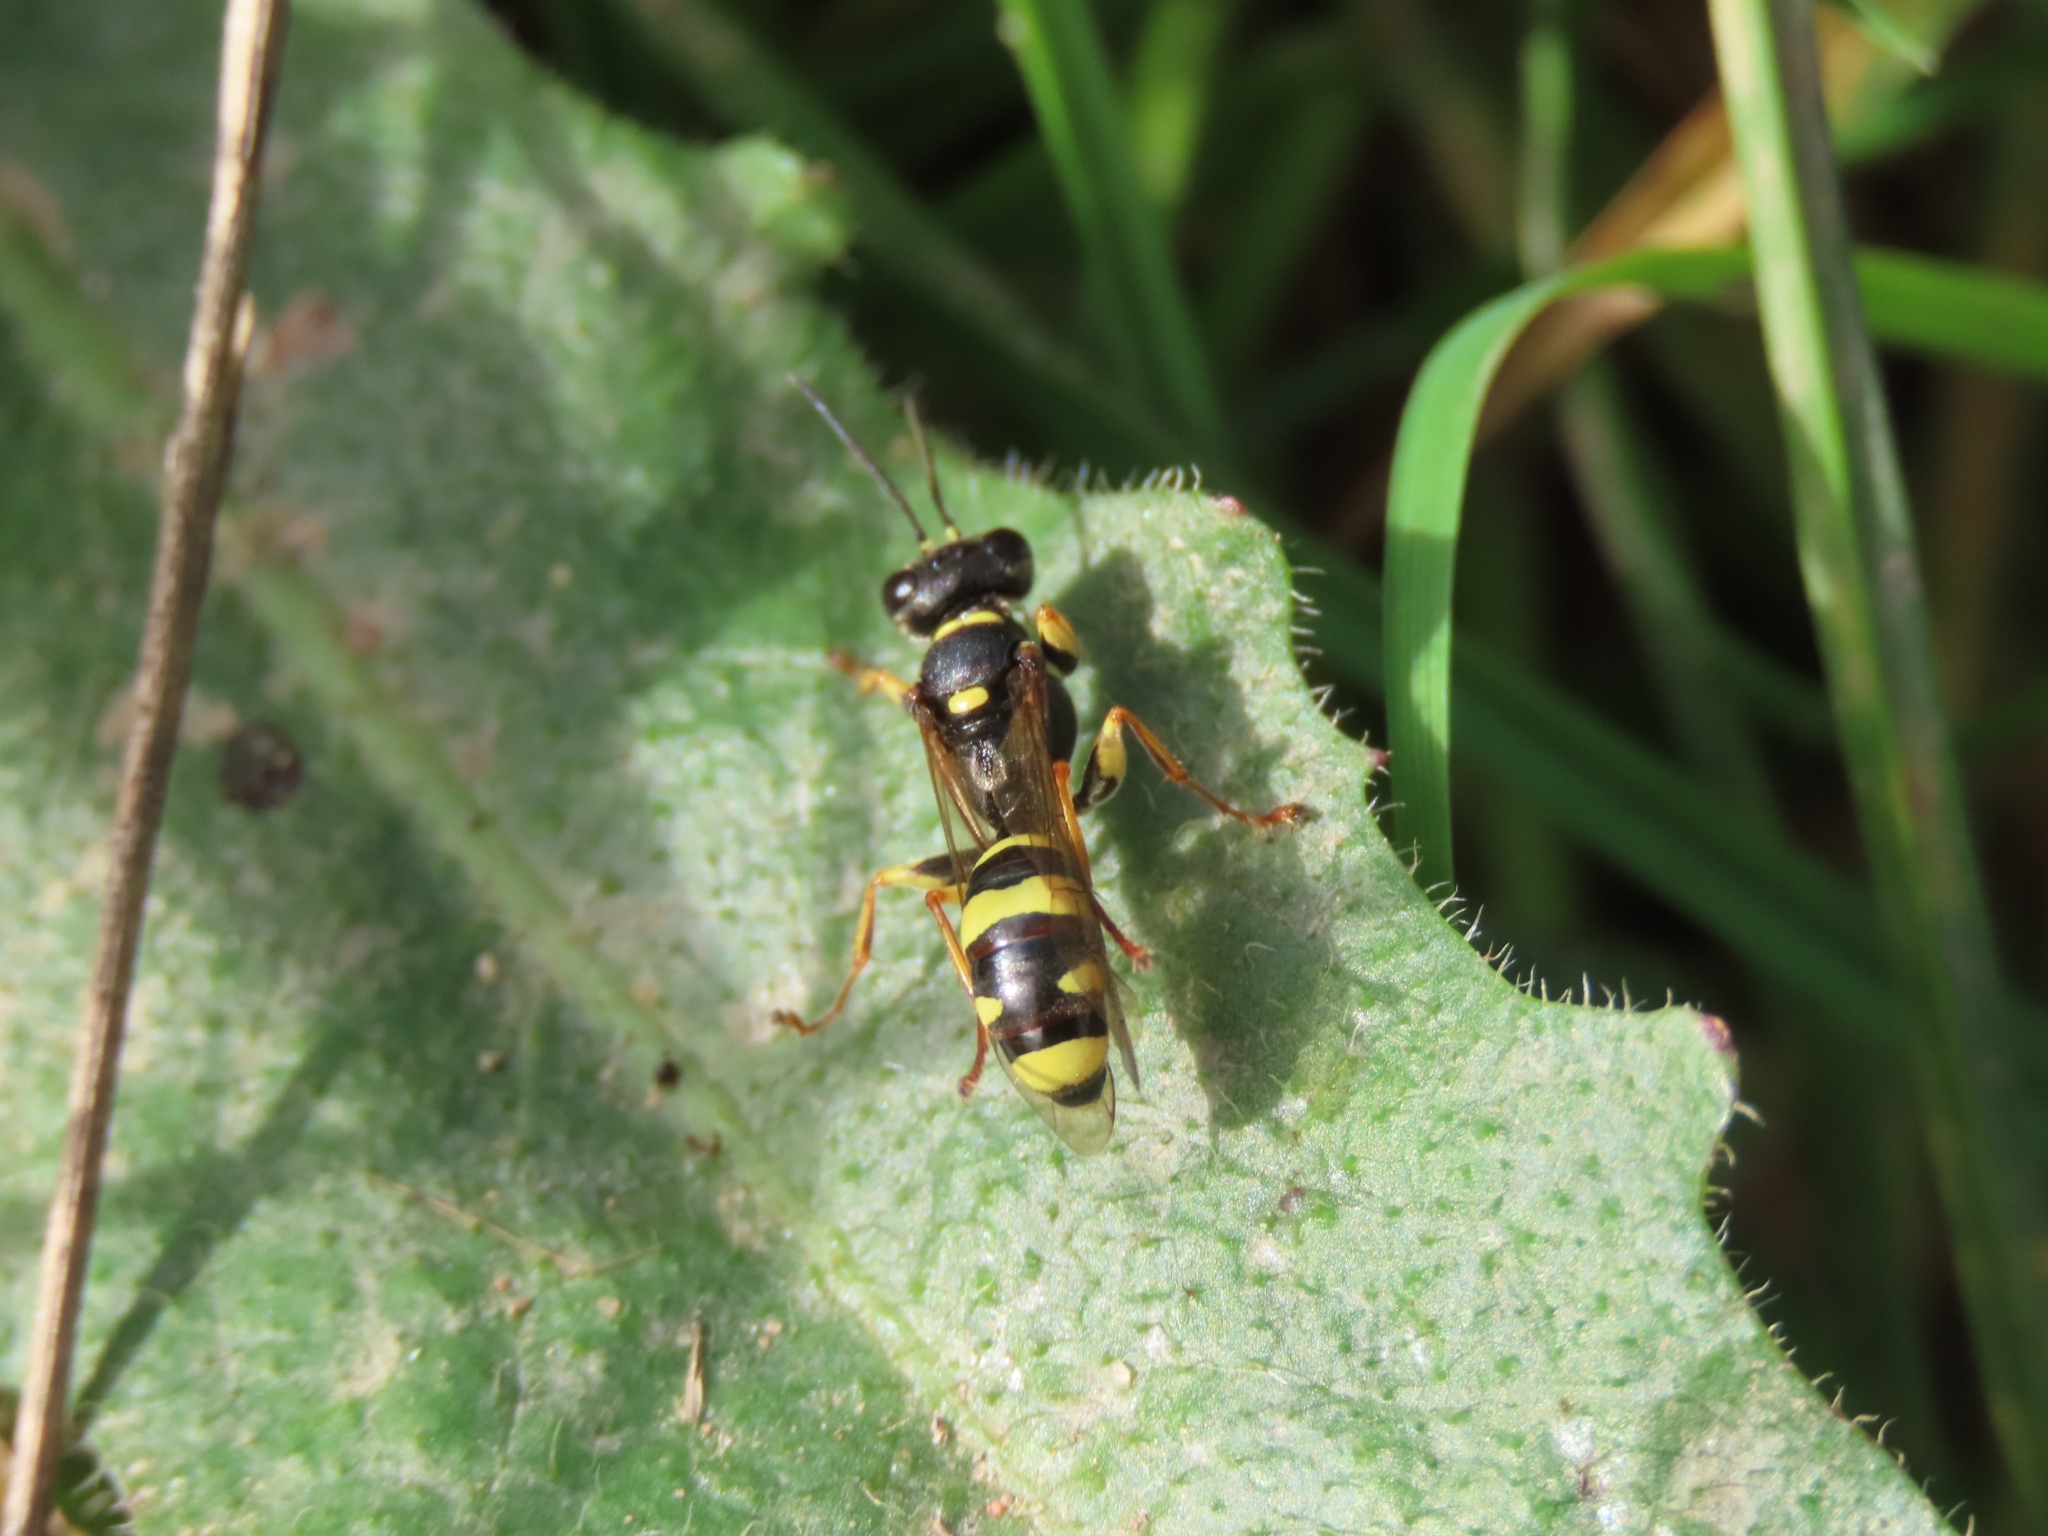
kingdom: Animalia
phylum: Arthropoda
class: Insecta
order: Hymenoptera
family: Crabronidae
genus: Mellinus
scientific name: Mellinus arvensis
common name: Field digger wasp
